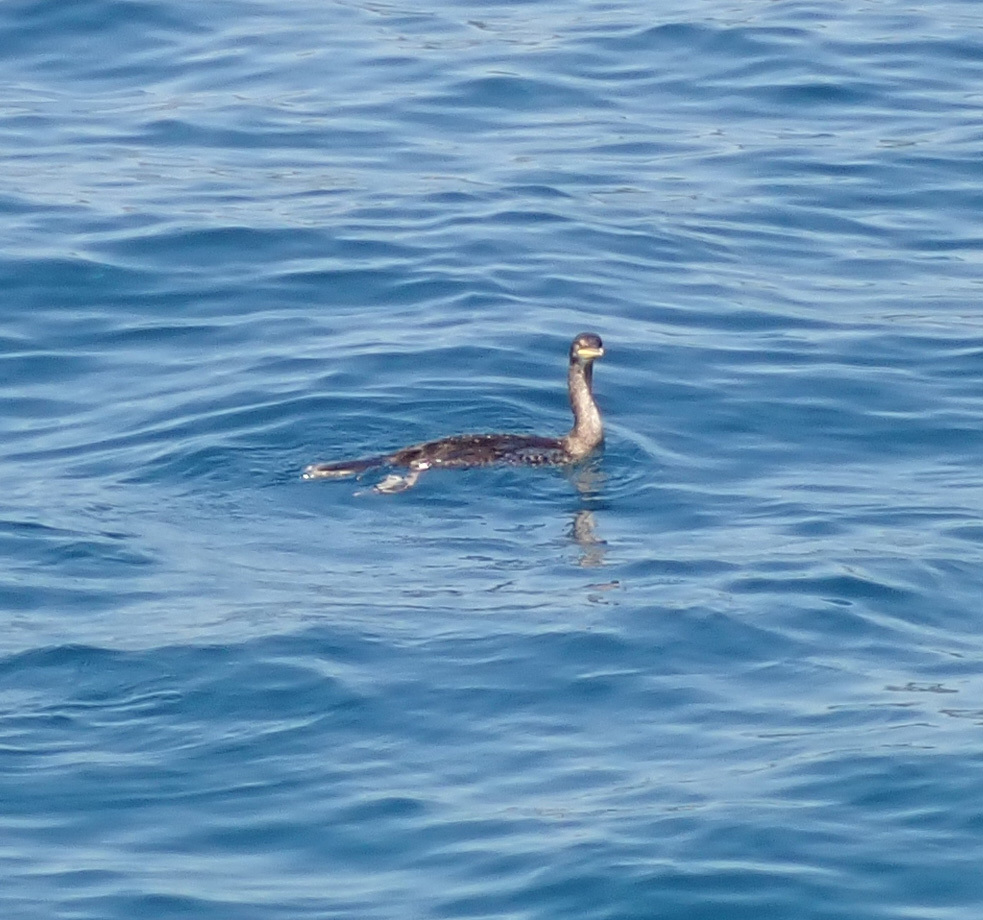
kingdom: Animalia
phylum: Chordata
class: Aves
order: Suliformes
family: Phalacrocoracidae
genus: Phalacrocorax
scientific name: Phalacrocorax aristotelis
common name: European shag
